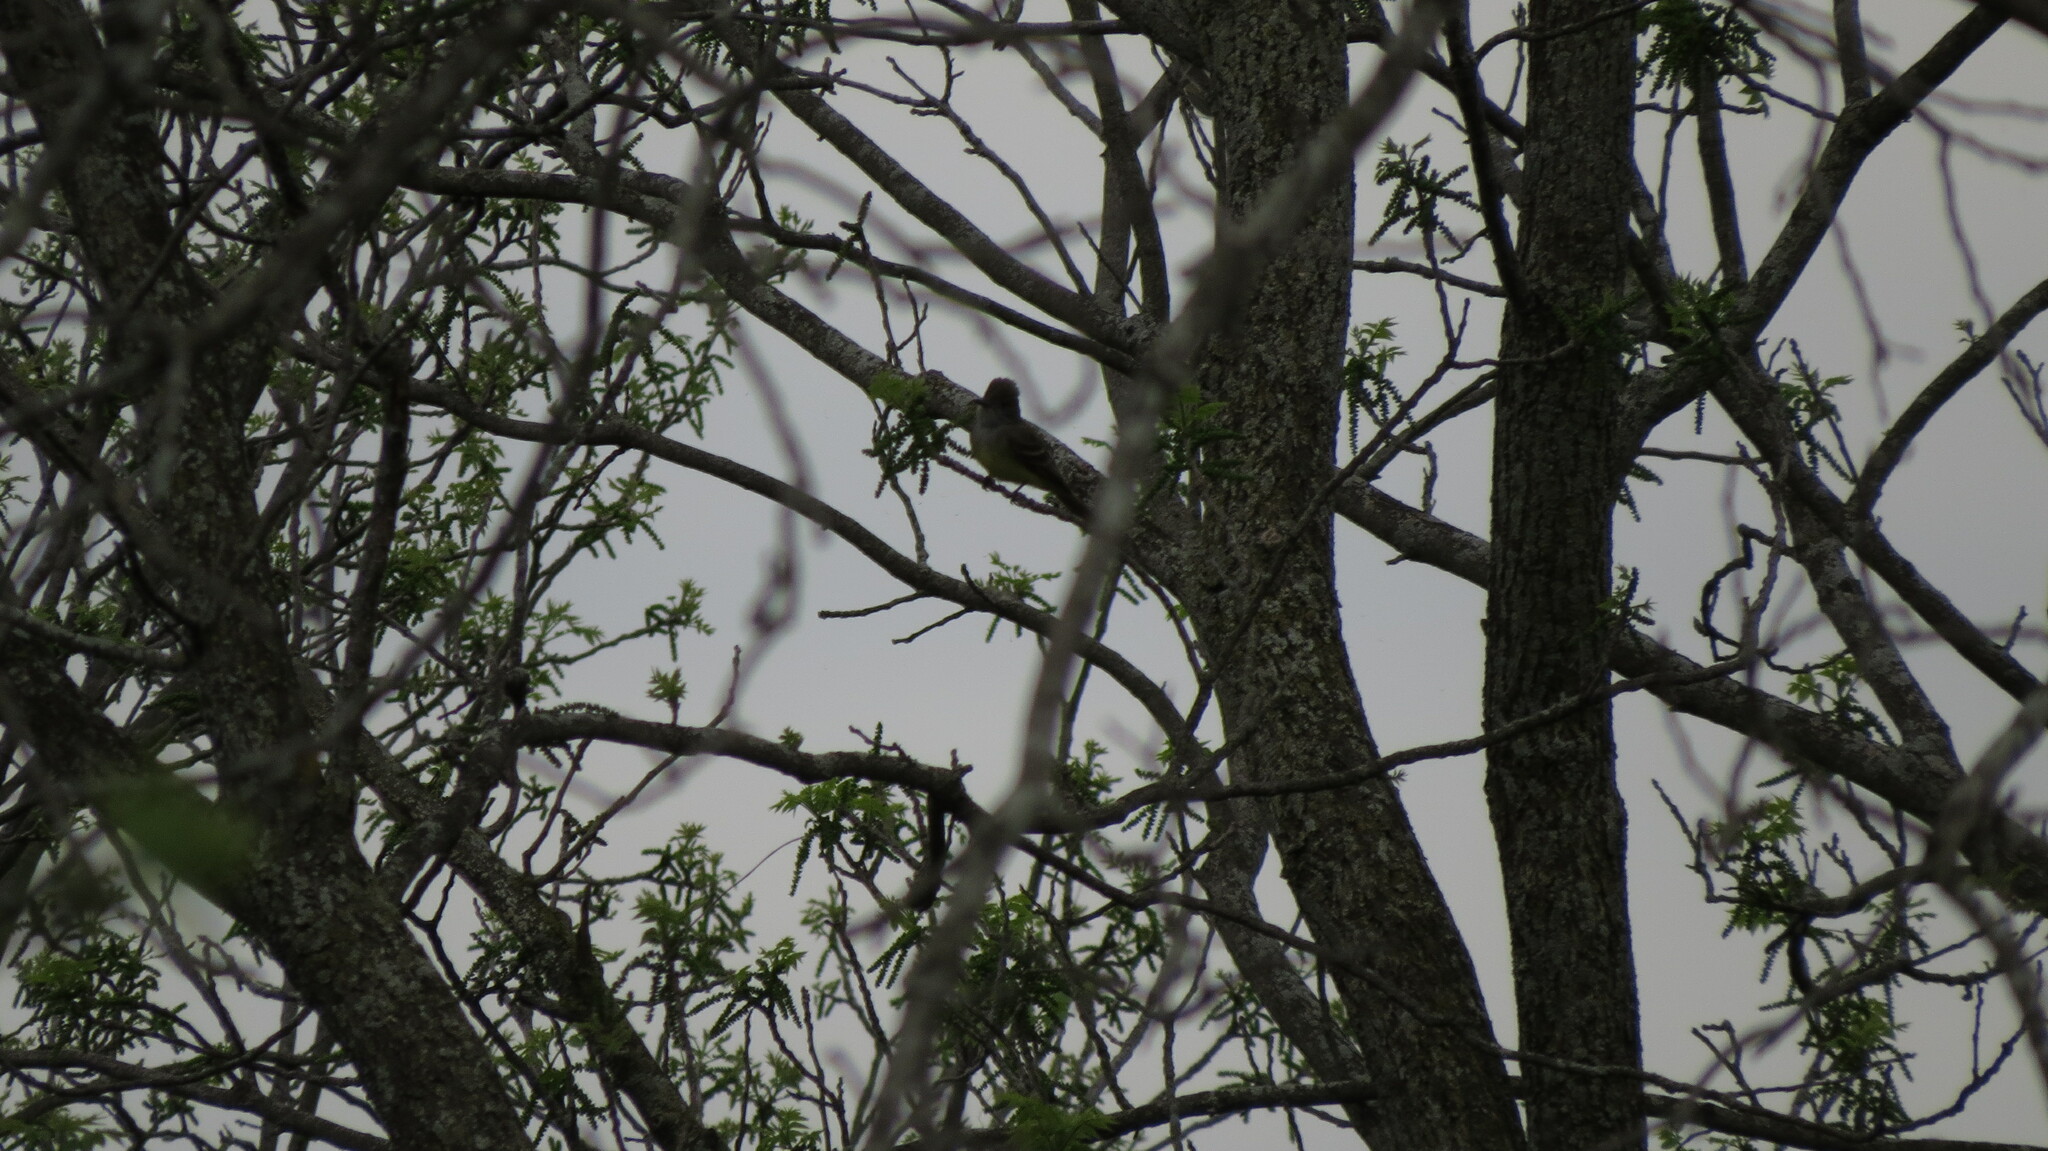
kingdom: Animalia
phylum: Chordata
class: Aves
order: Passeriformes
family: Tyrannidae
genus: Myiarchus
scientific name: Myiarchus crinitus
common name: Great crested flycatcher
